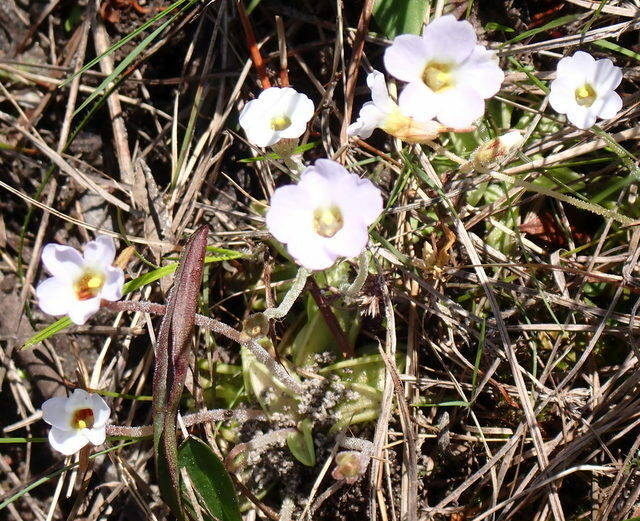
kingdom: Plantae
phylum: Tracheophyta
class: Magnoliopsida
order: Lamiales
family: Lentibulariaceae
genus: Pinguicula
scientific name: Pinguicula pumila
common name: Small butterwort
